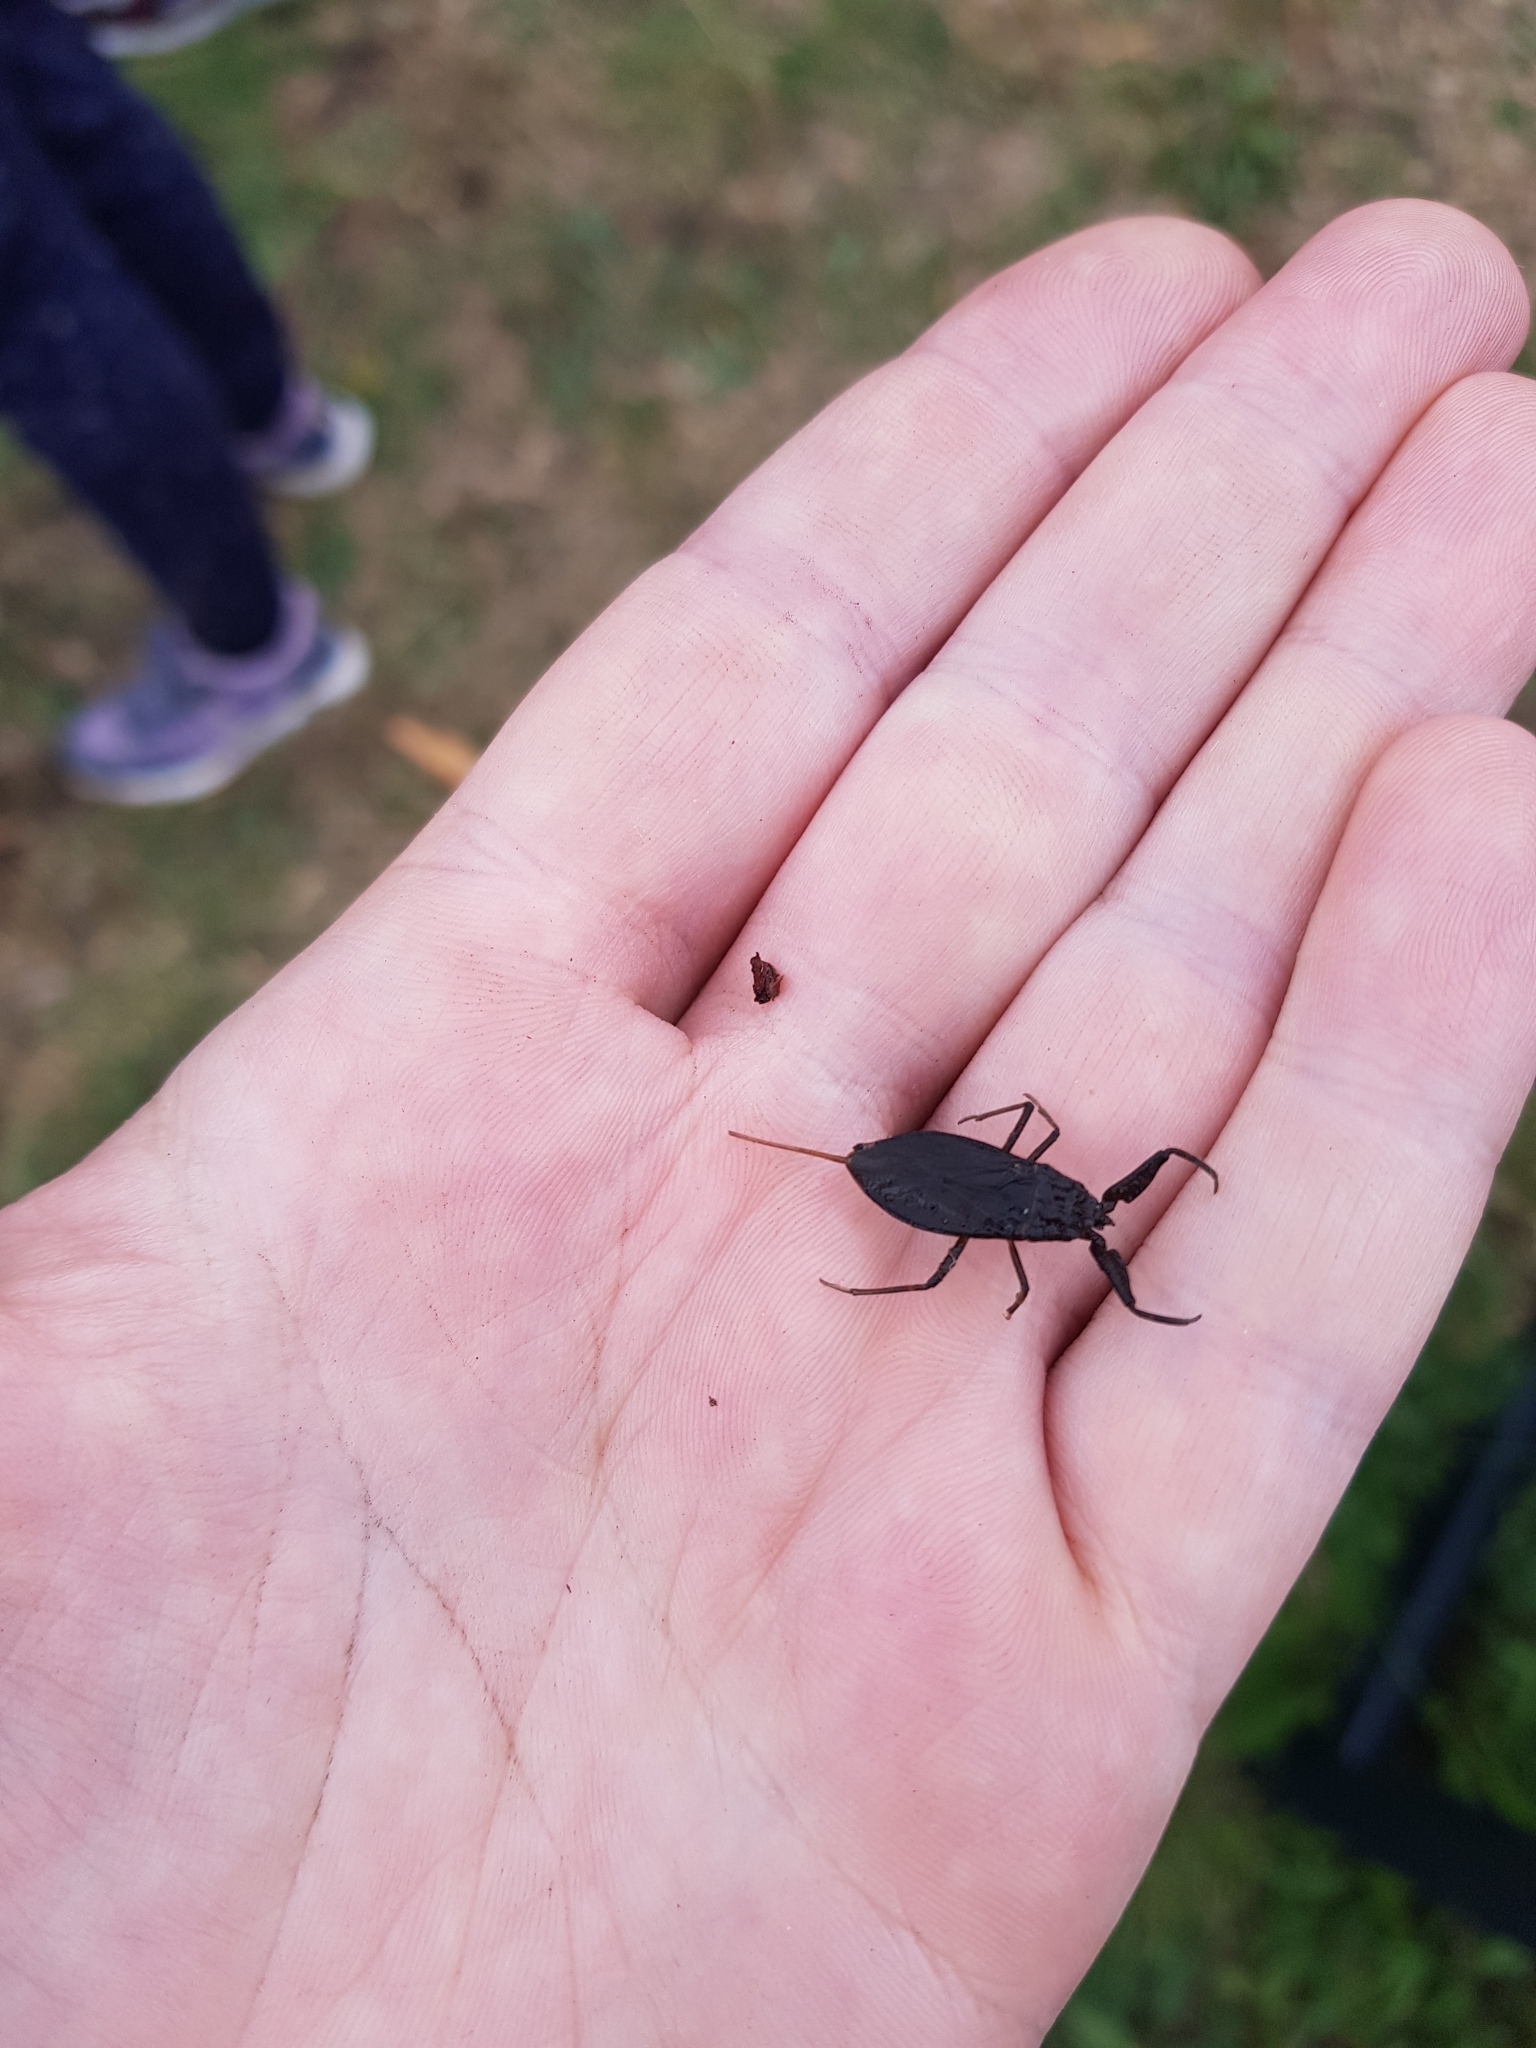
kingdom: Animalia
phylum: Arthropoda
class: Insecta
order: Hemiptera
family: Nepidae
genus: Nepa
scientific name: Nepa cinerea
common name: Water scorpion
